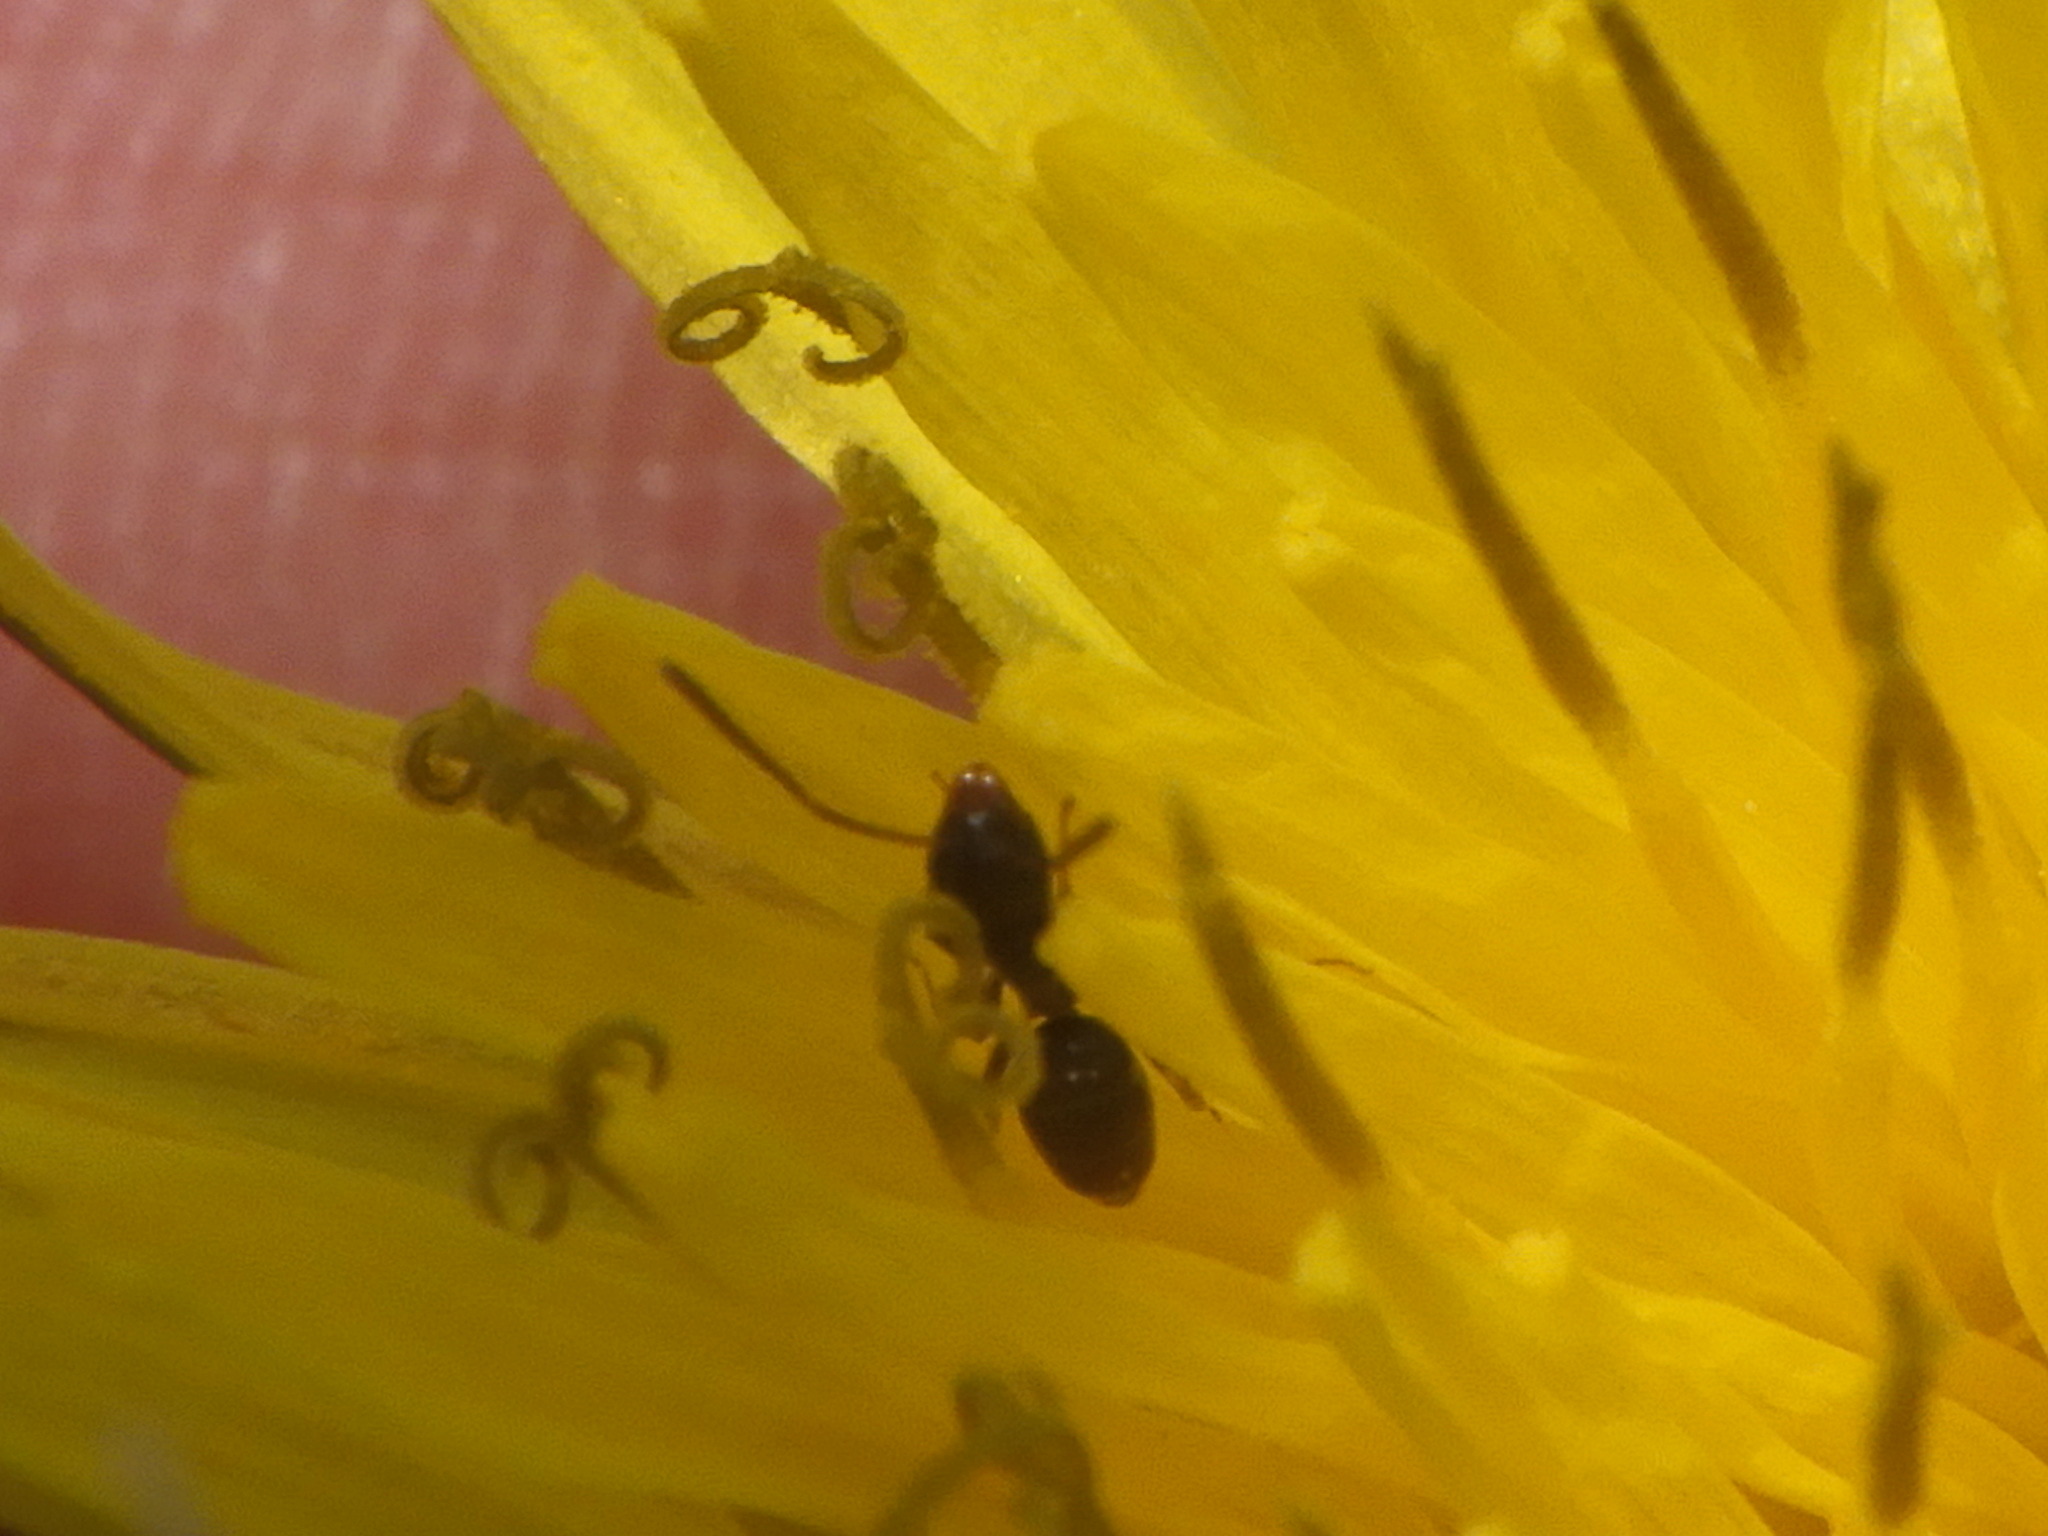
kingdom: Animalia
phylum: Arthropoda
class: Insecta
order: Hymenoptera
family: Formicidae
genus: Tapinoma
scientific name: Tapinoma sessile
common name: Odorous house ant
